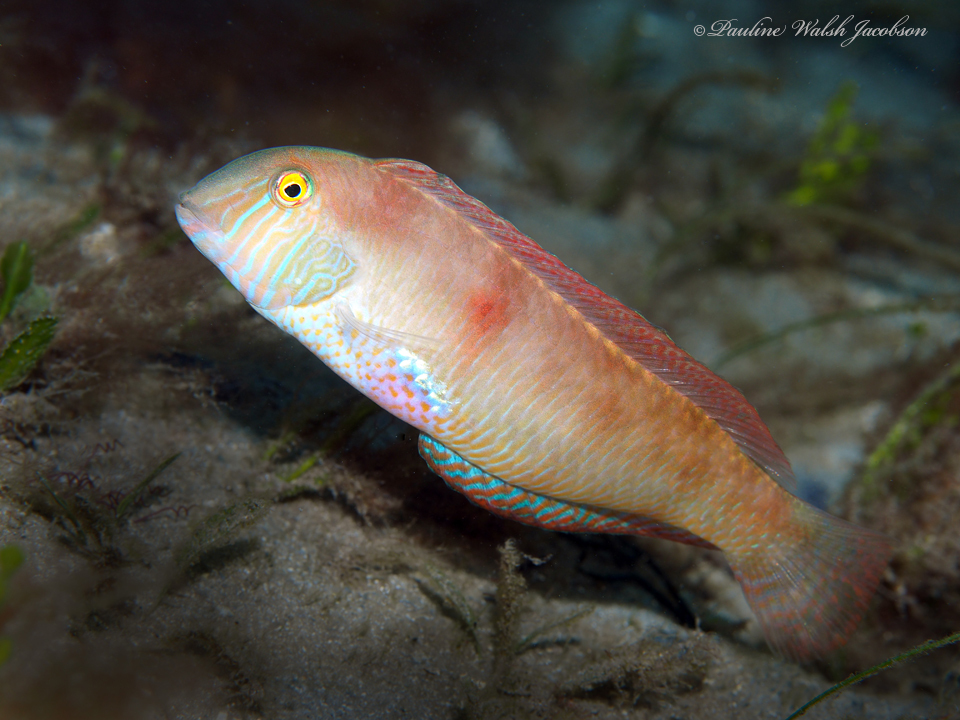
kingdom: Animalia
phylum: Chordata
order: Perciformes
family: Labridae
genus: Xyrichtys
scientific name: Xyrichtys novacula
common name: Pearly razorfish
